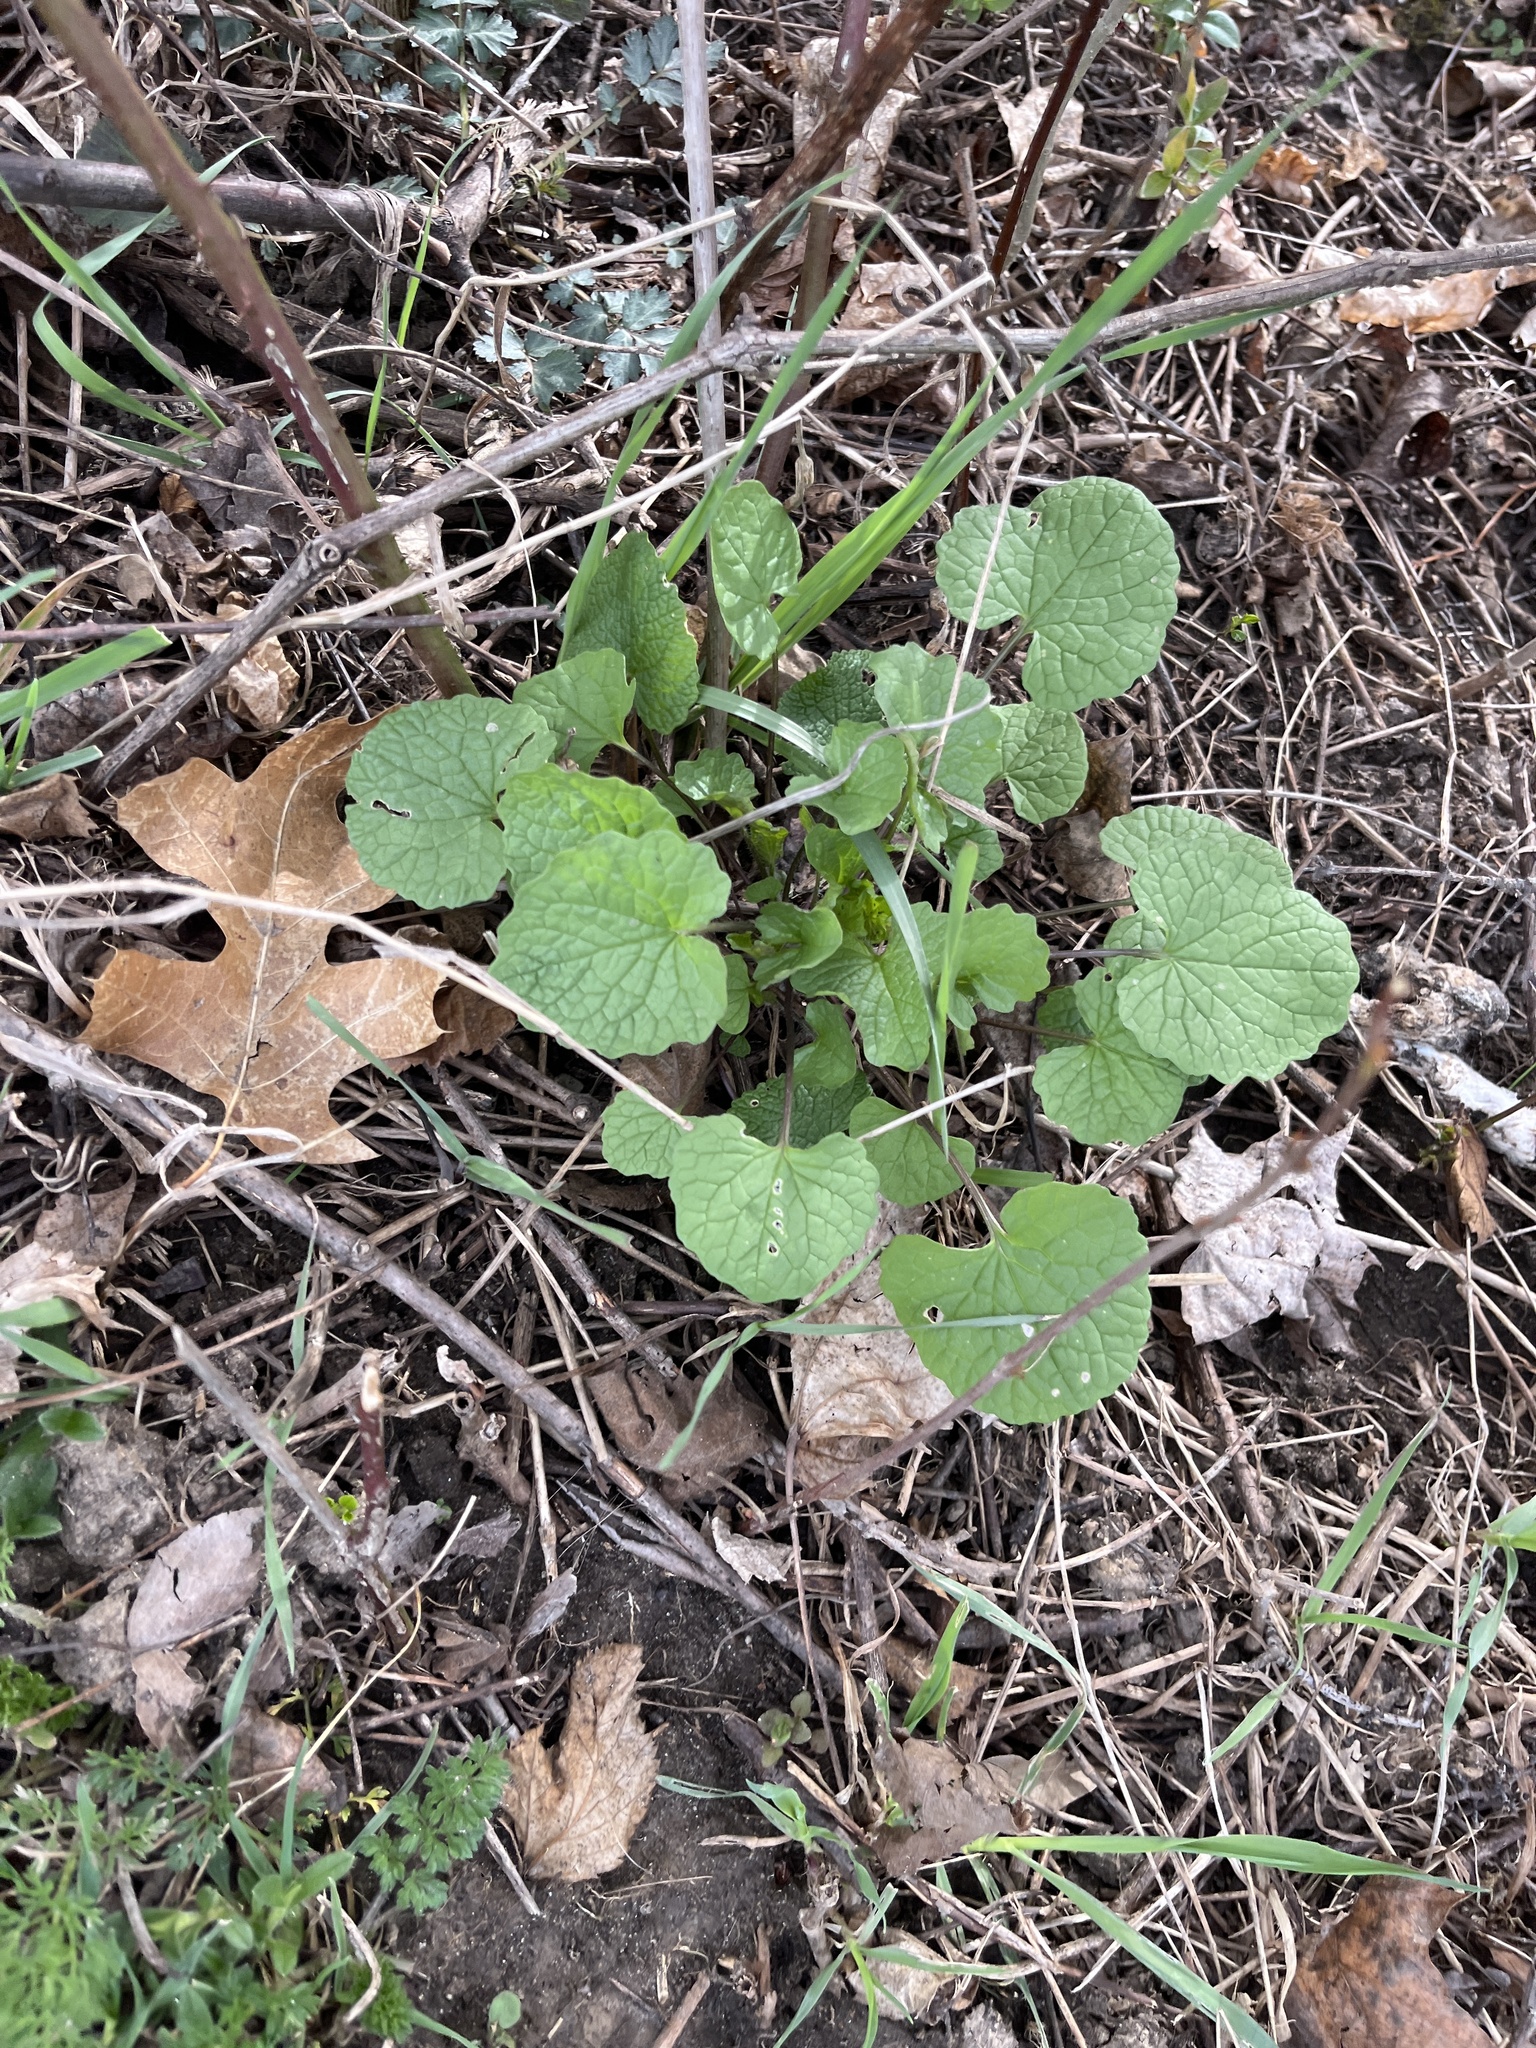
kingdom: Plantae
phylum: Tracheophyta
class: Magnoliopsida
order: Brassicales
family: Brassicaceae
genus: Alliaria
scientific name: Alliaria petiolata
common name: Garlic mustard
